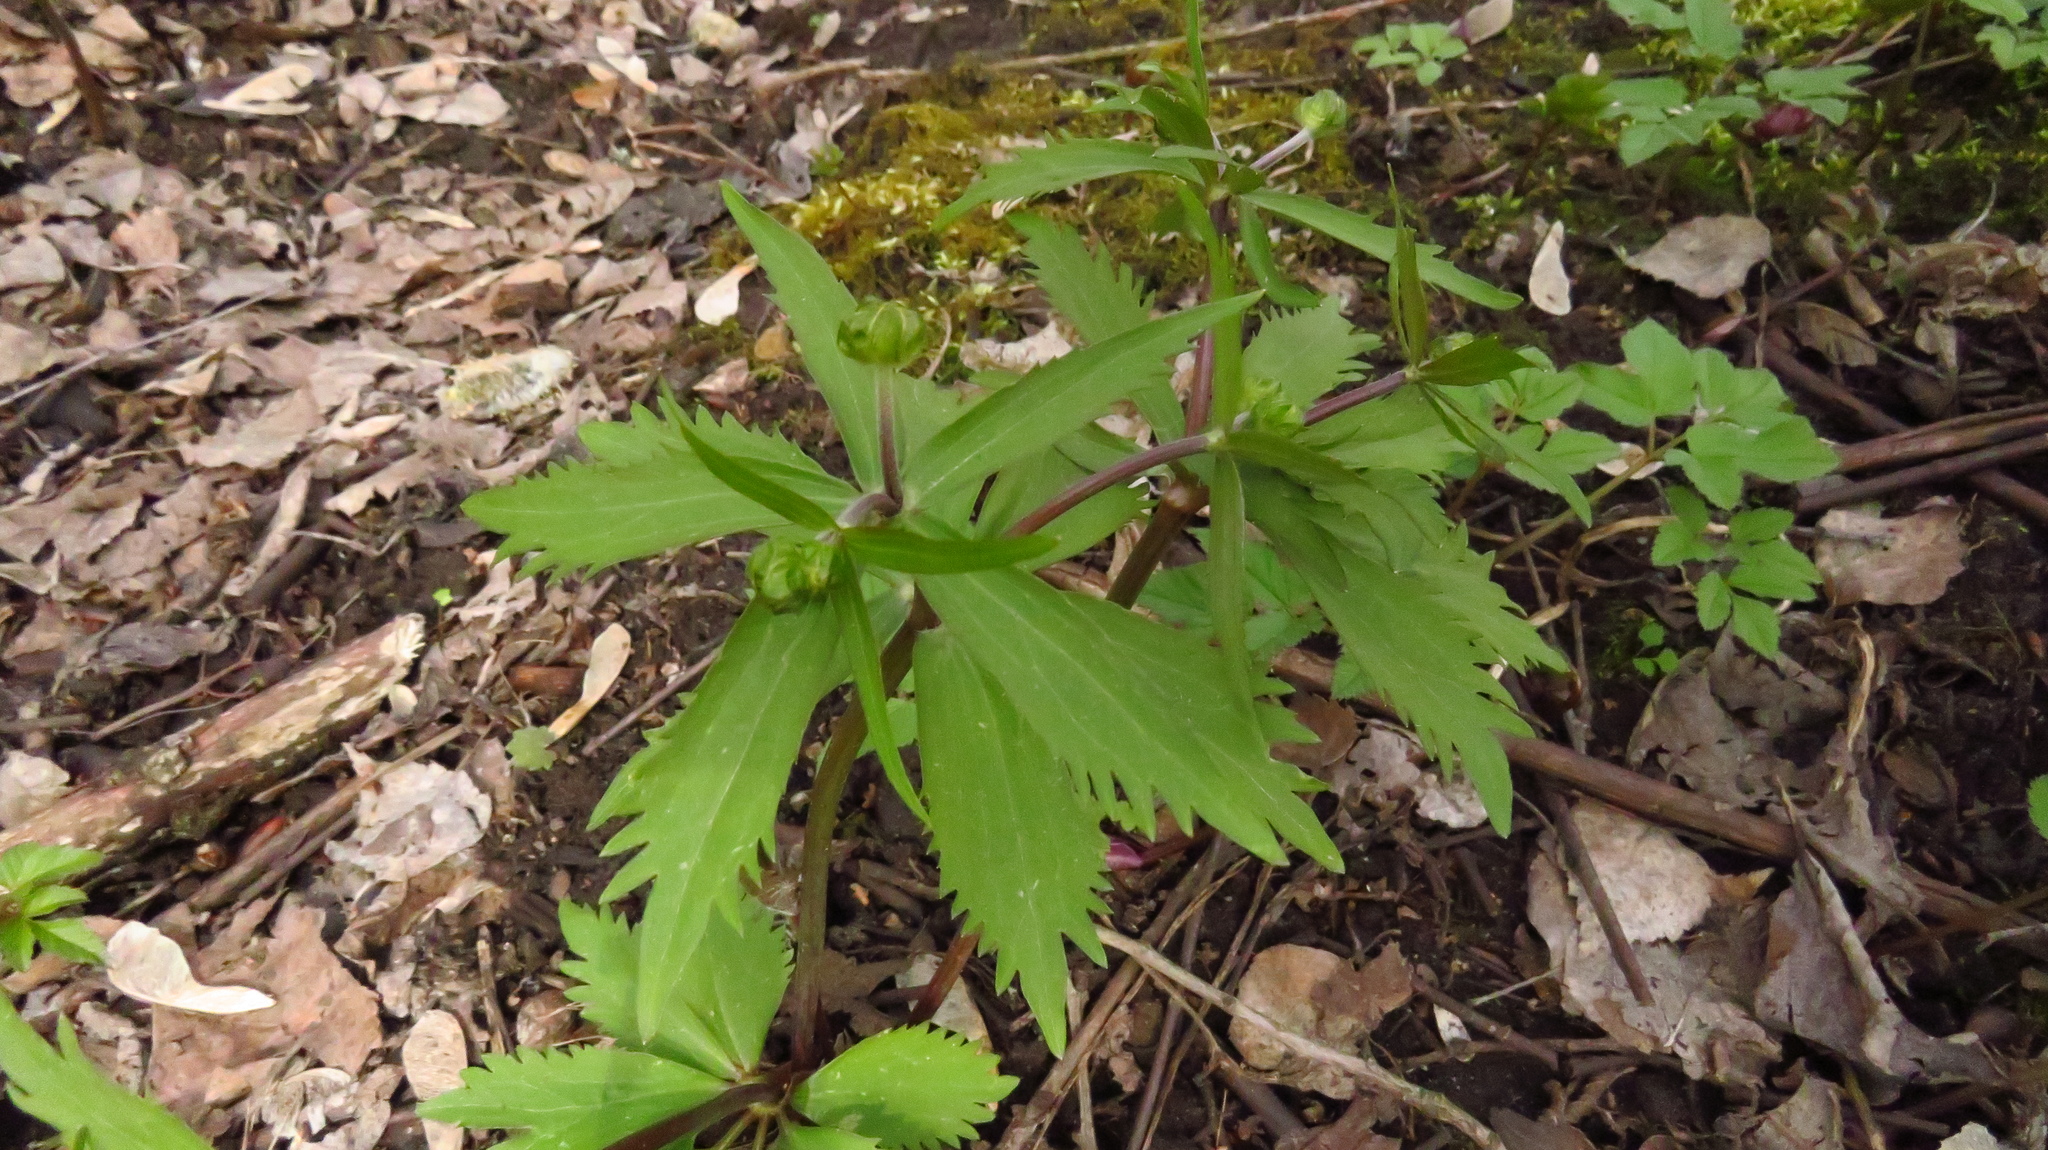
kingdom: Plantae
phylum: Tracheophyta
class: Magnoliopsida
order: Ranunculales
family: Ranunculaceae
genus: Ranunculus
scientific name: Ranunculus cassubicus
